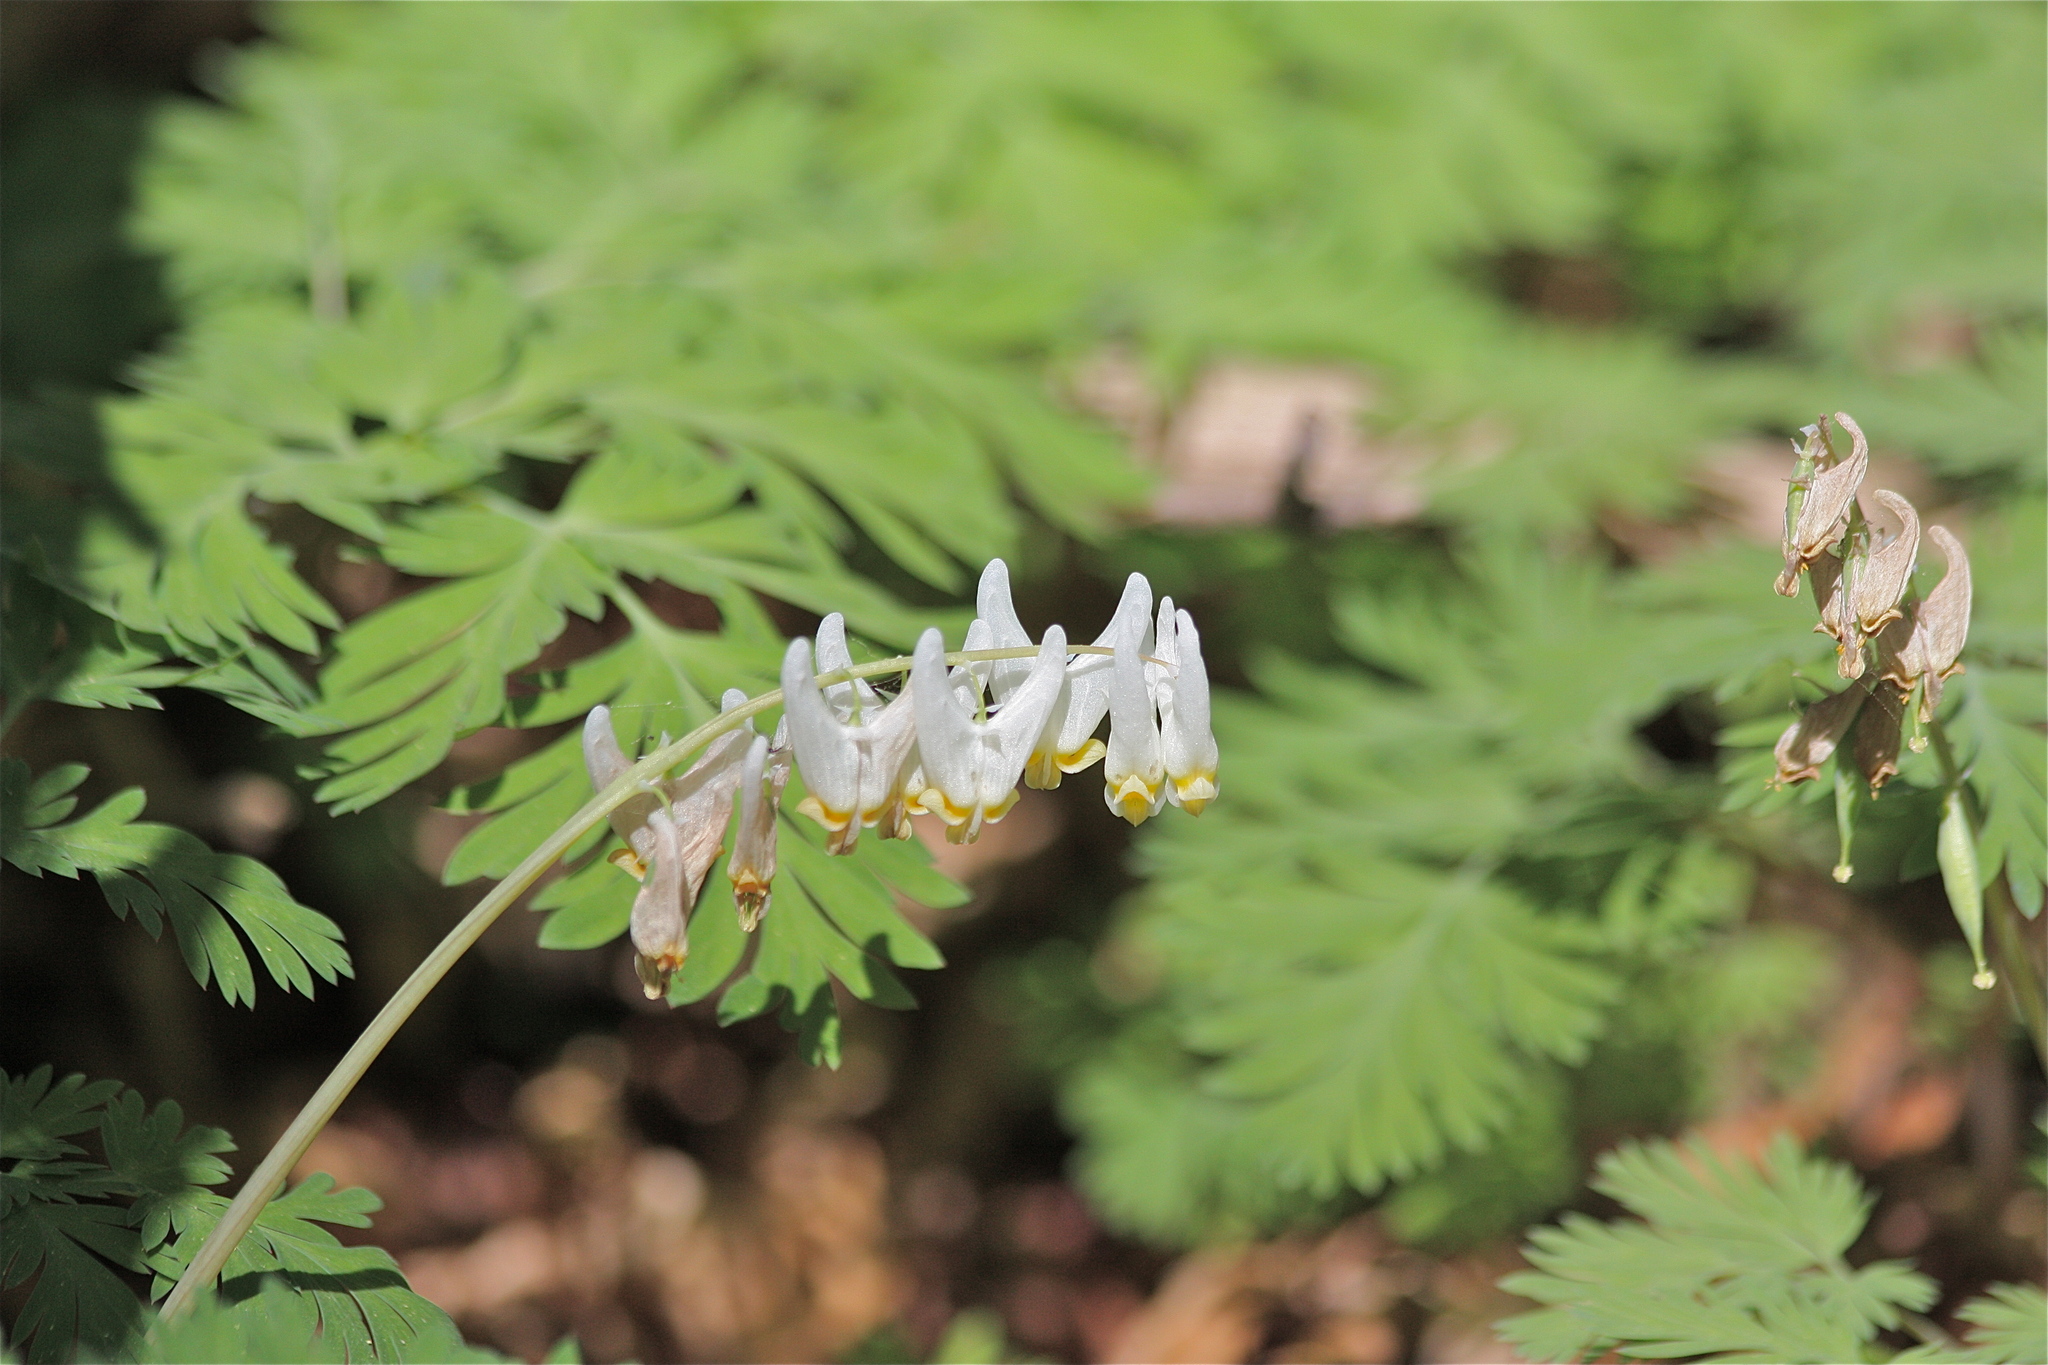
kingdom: Plantae
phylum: Tracheophyta
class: Magnoliopsida
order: Ranunculales
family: Papaveraceae
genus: Dicentra
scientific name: Dicentra cucullaria
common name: Dutchman's breeches
